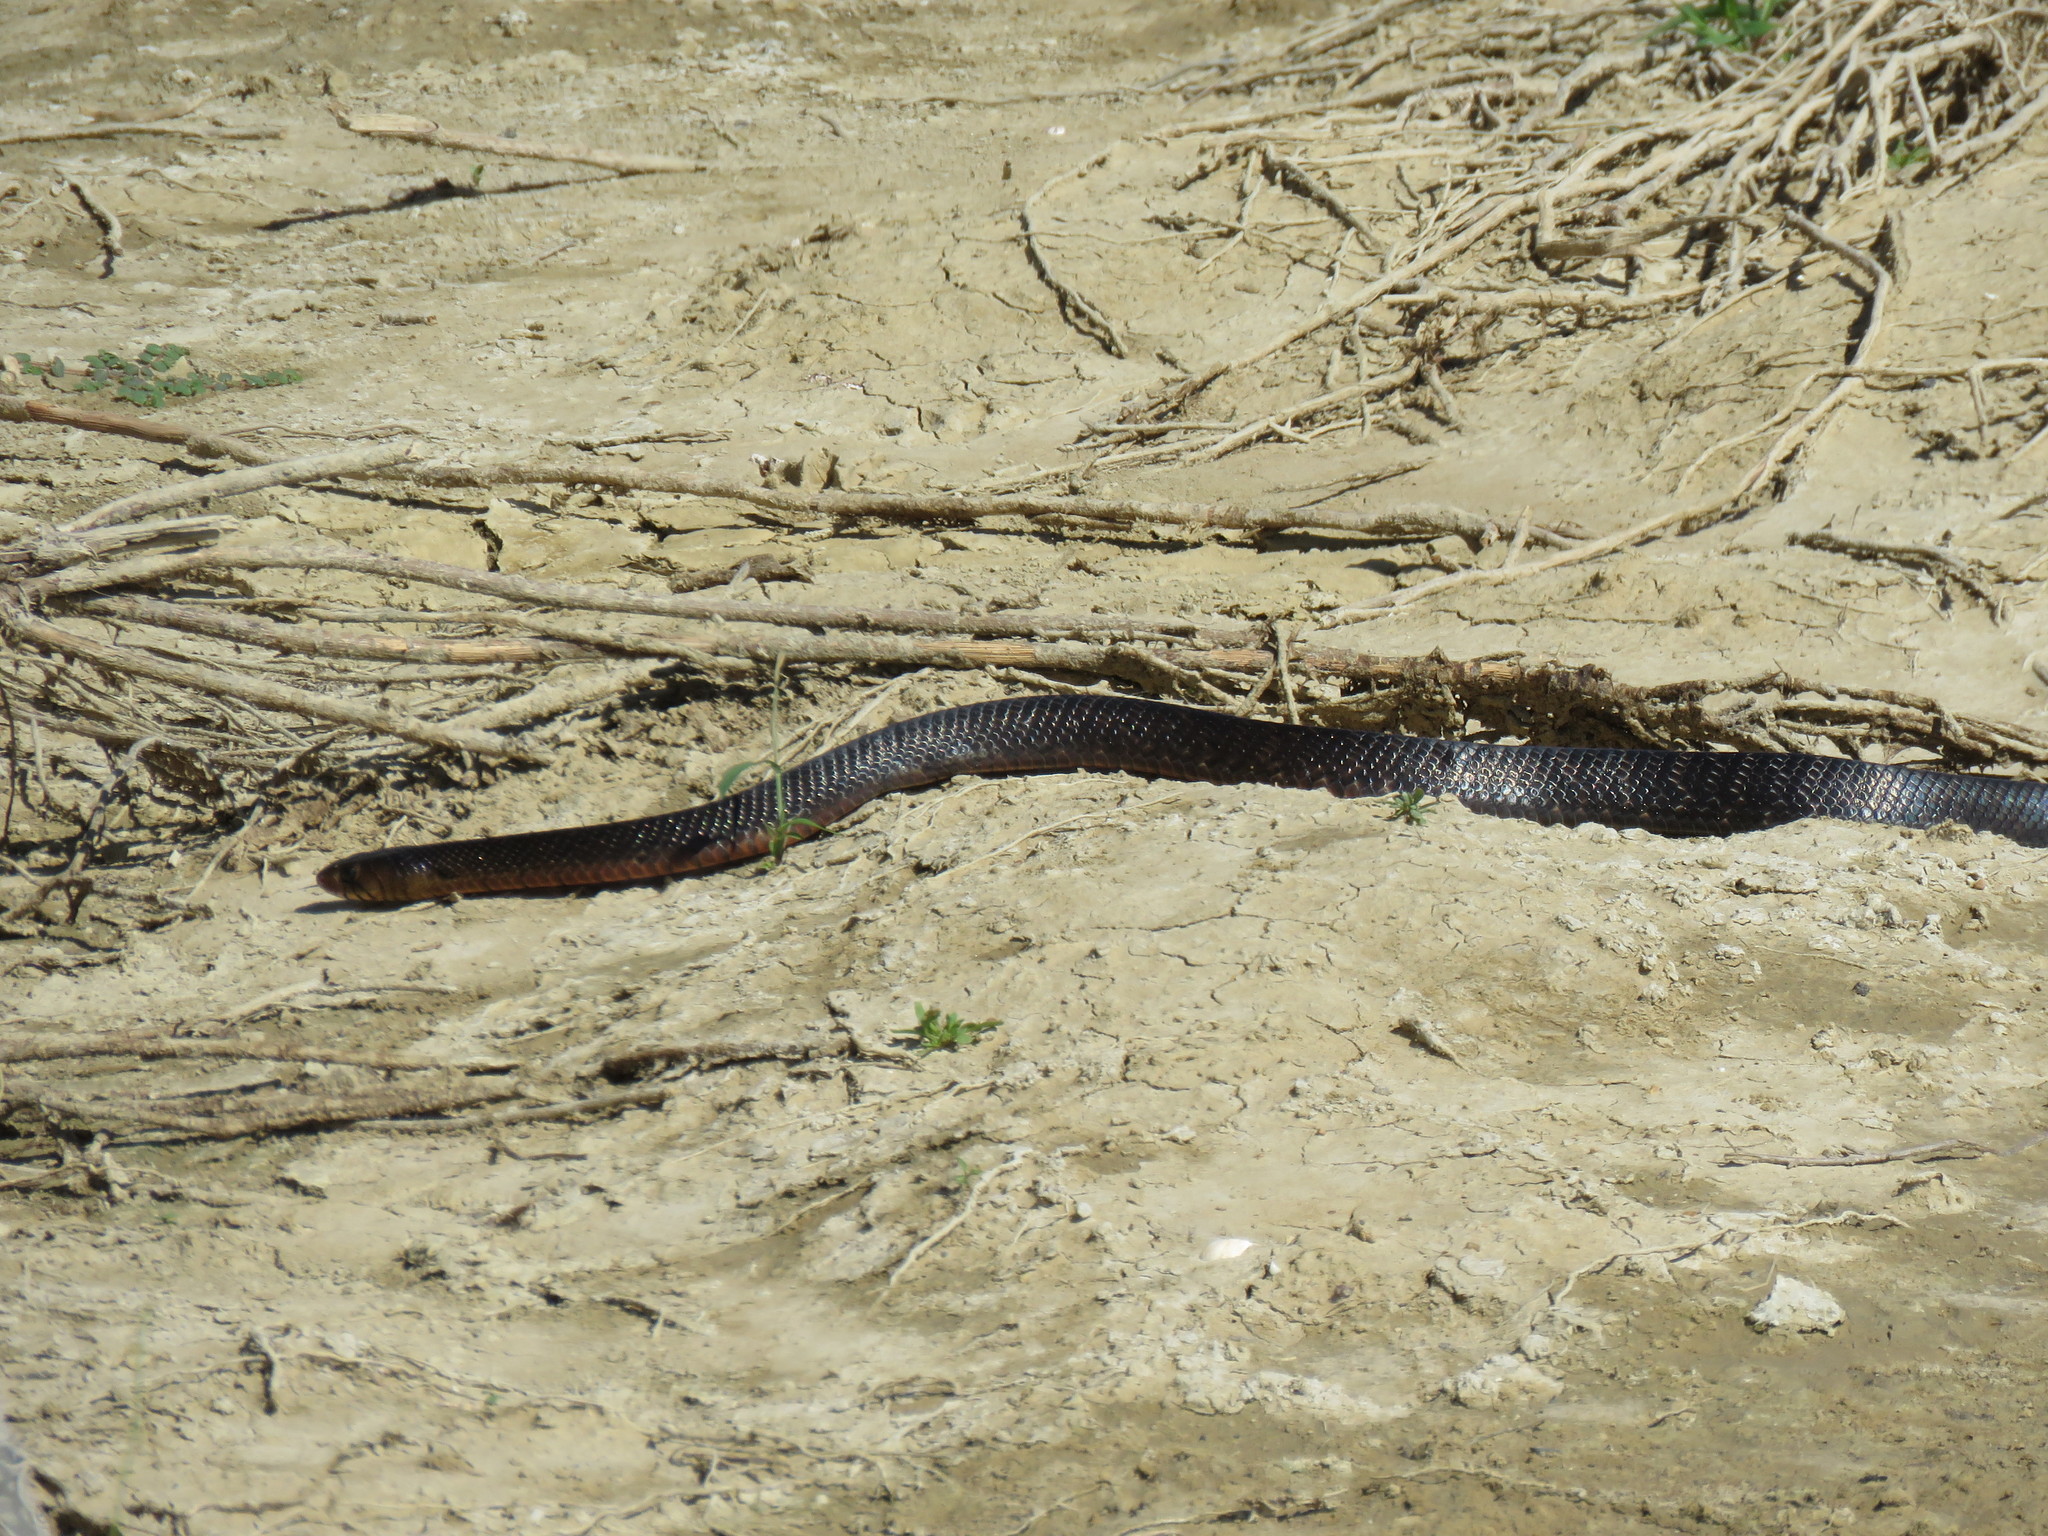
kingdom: Animalia
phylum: Chordata
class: Squamata
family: Colubridae
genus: Drymarchon
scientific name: Drymarchon melanurus
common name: Central american indigo snake
